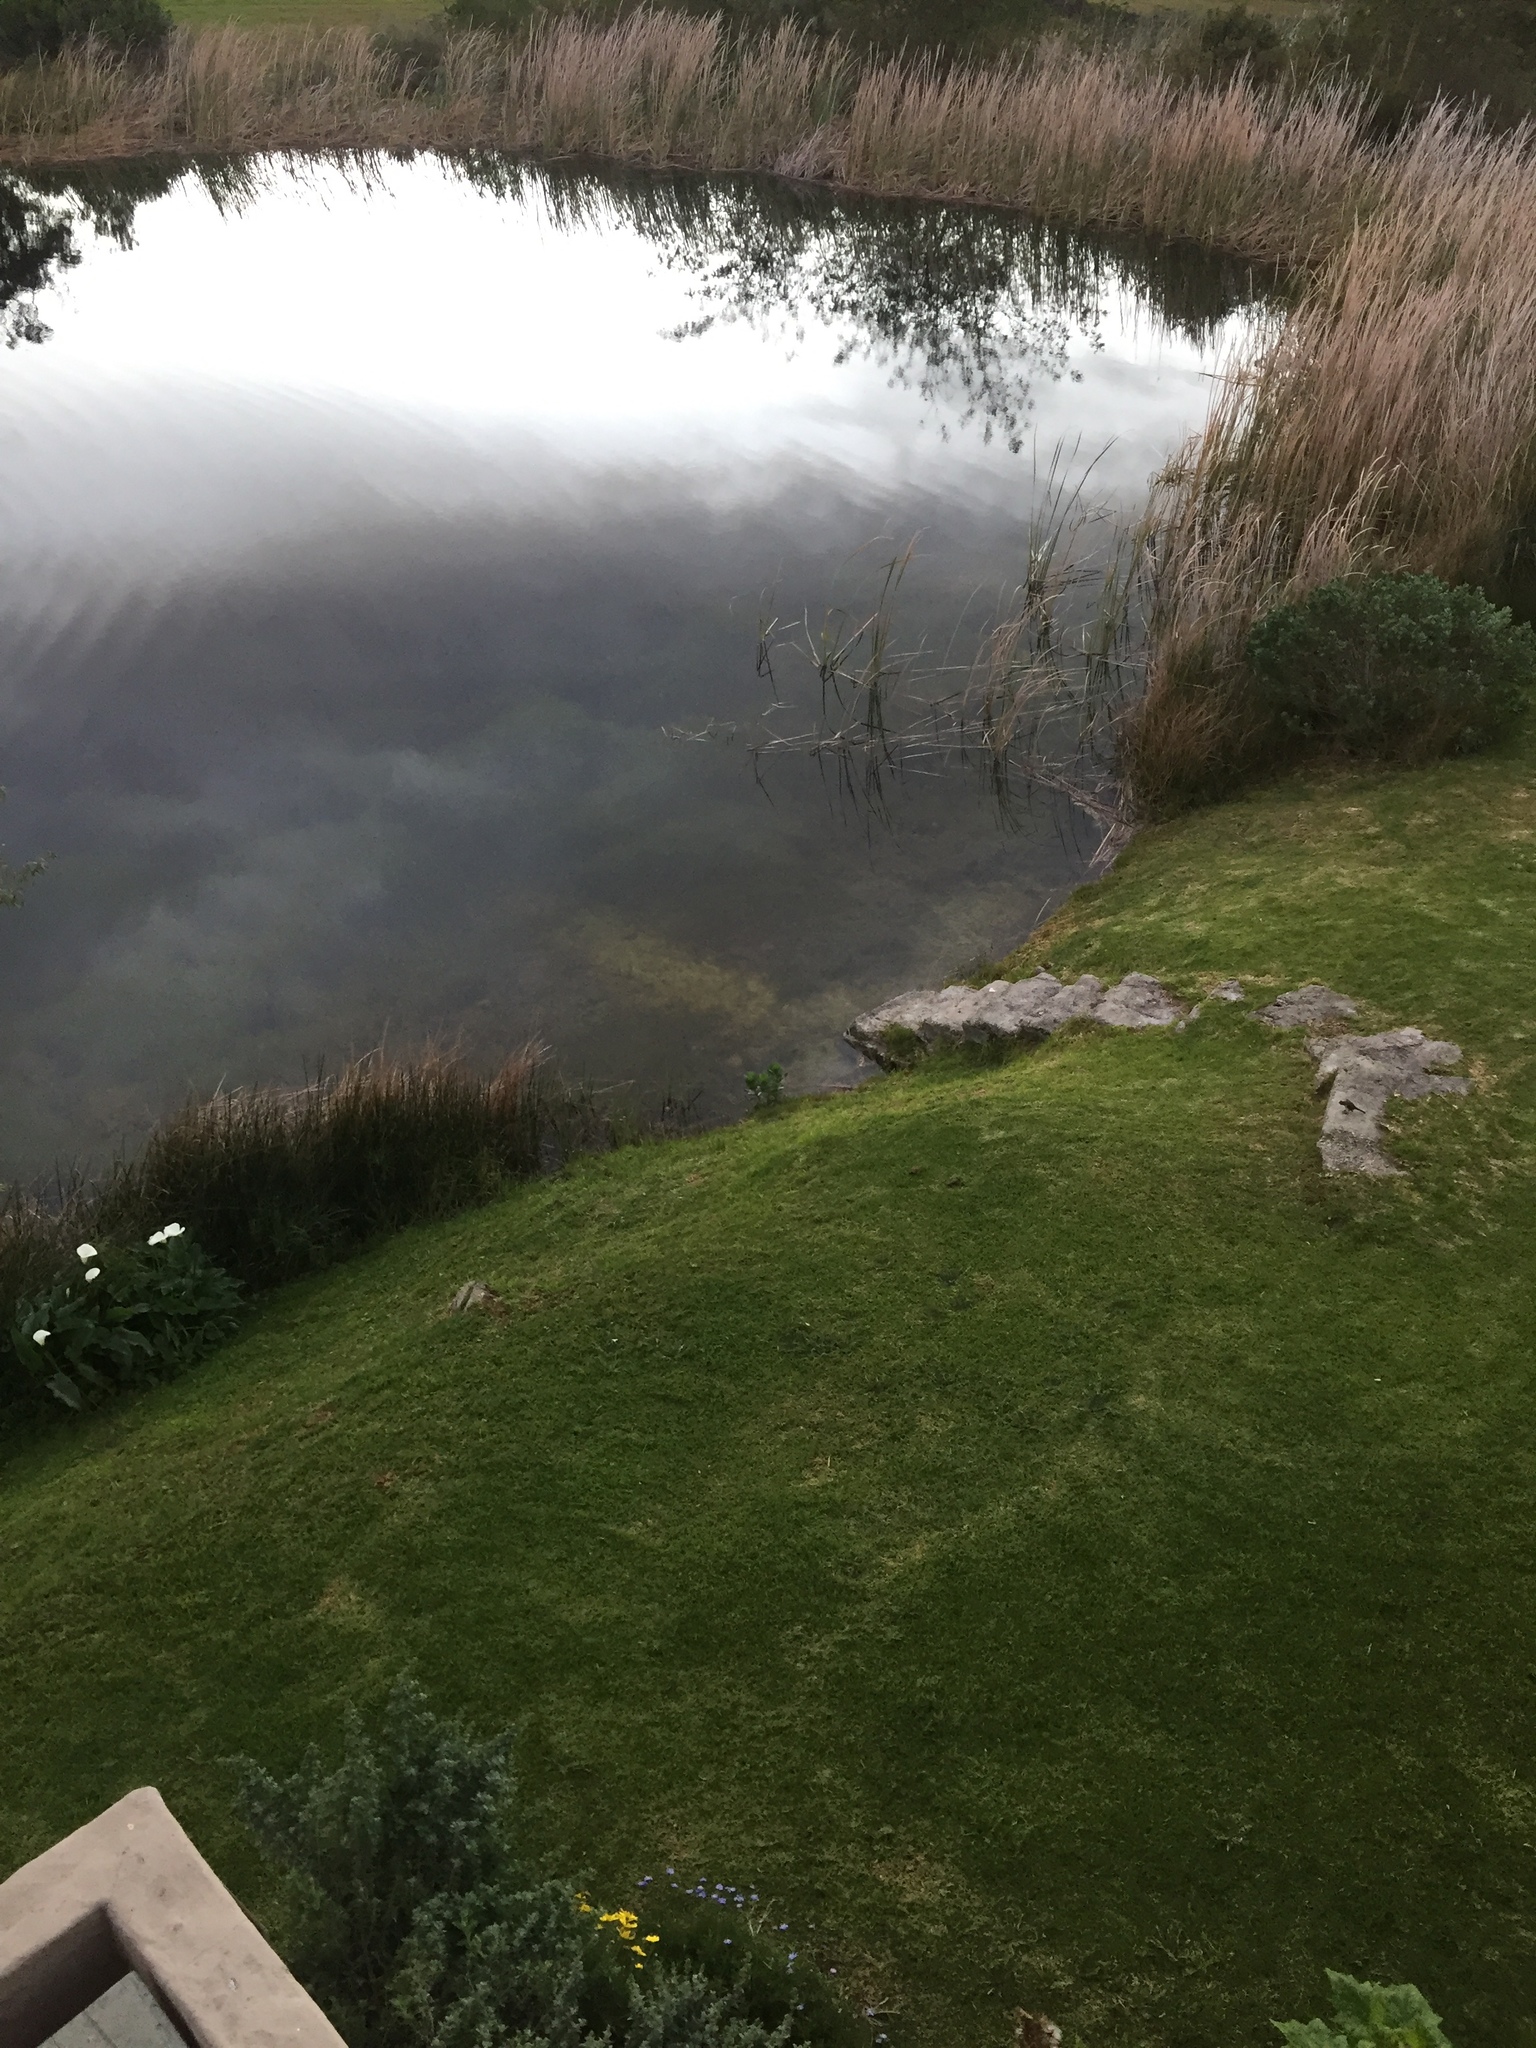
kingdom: Animalia
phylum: Chordata
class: Amphibia
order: Anura
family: Bufonidae
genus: Sclerophrys
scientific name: Sclerophrys pantherina
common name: Panther toad
